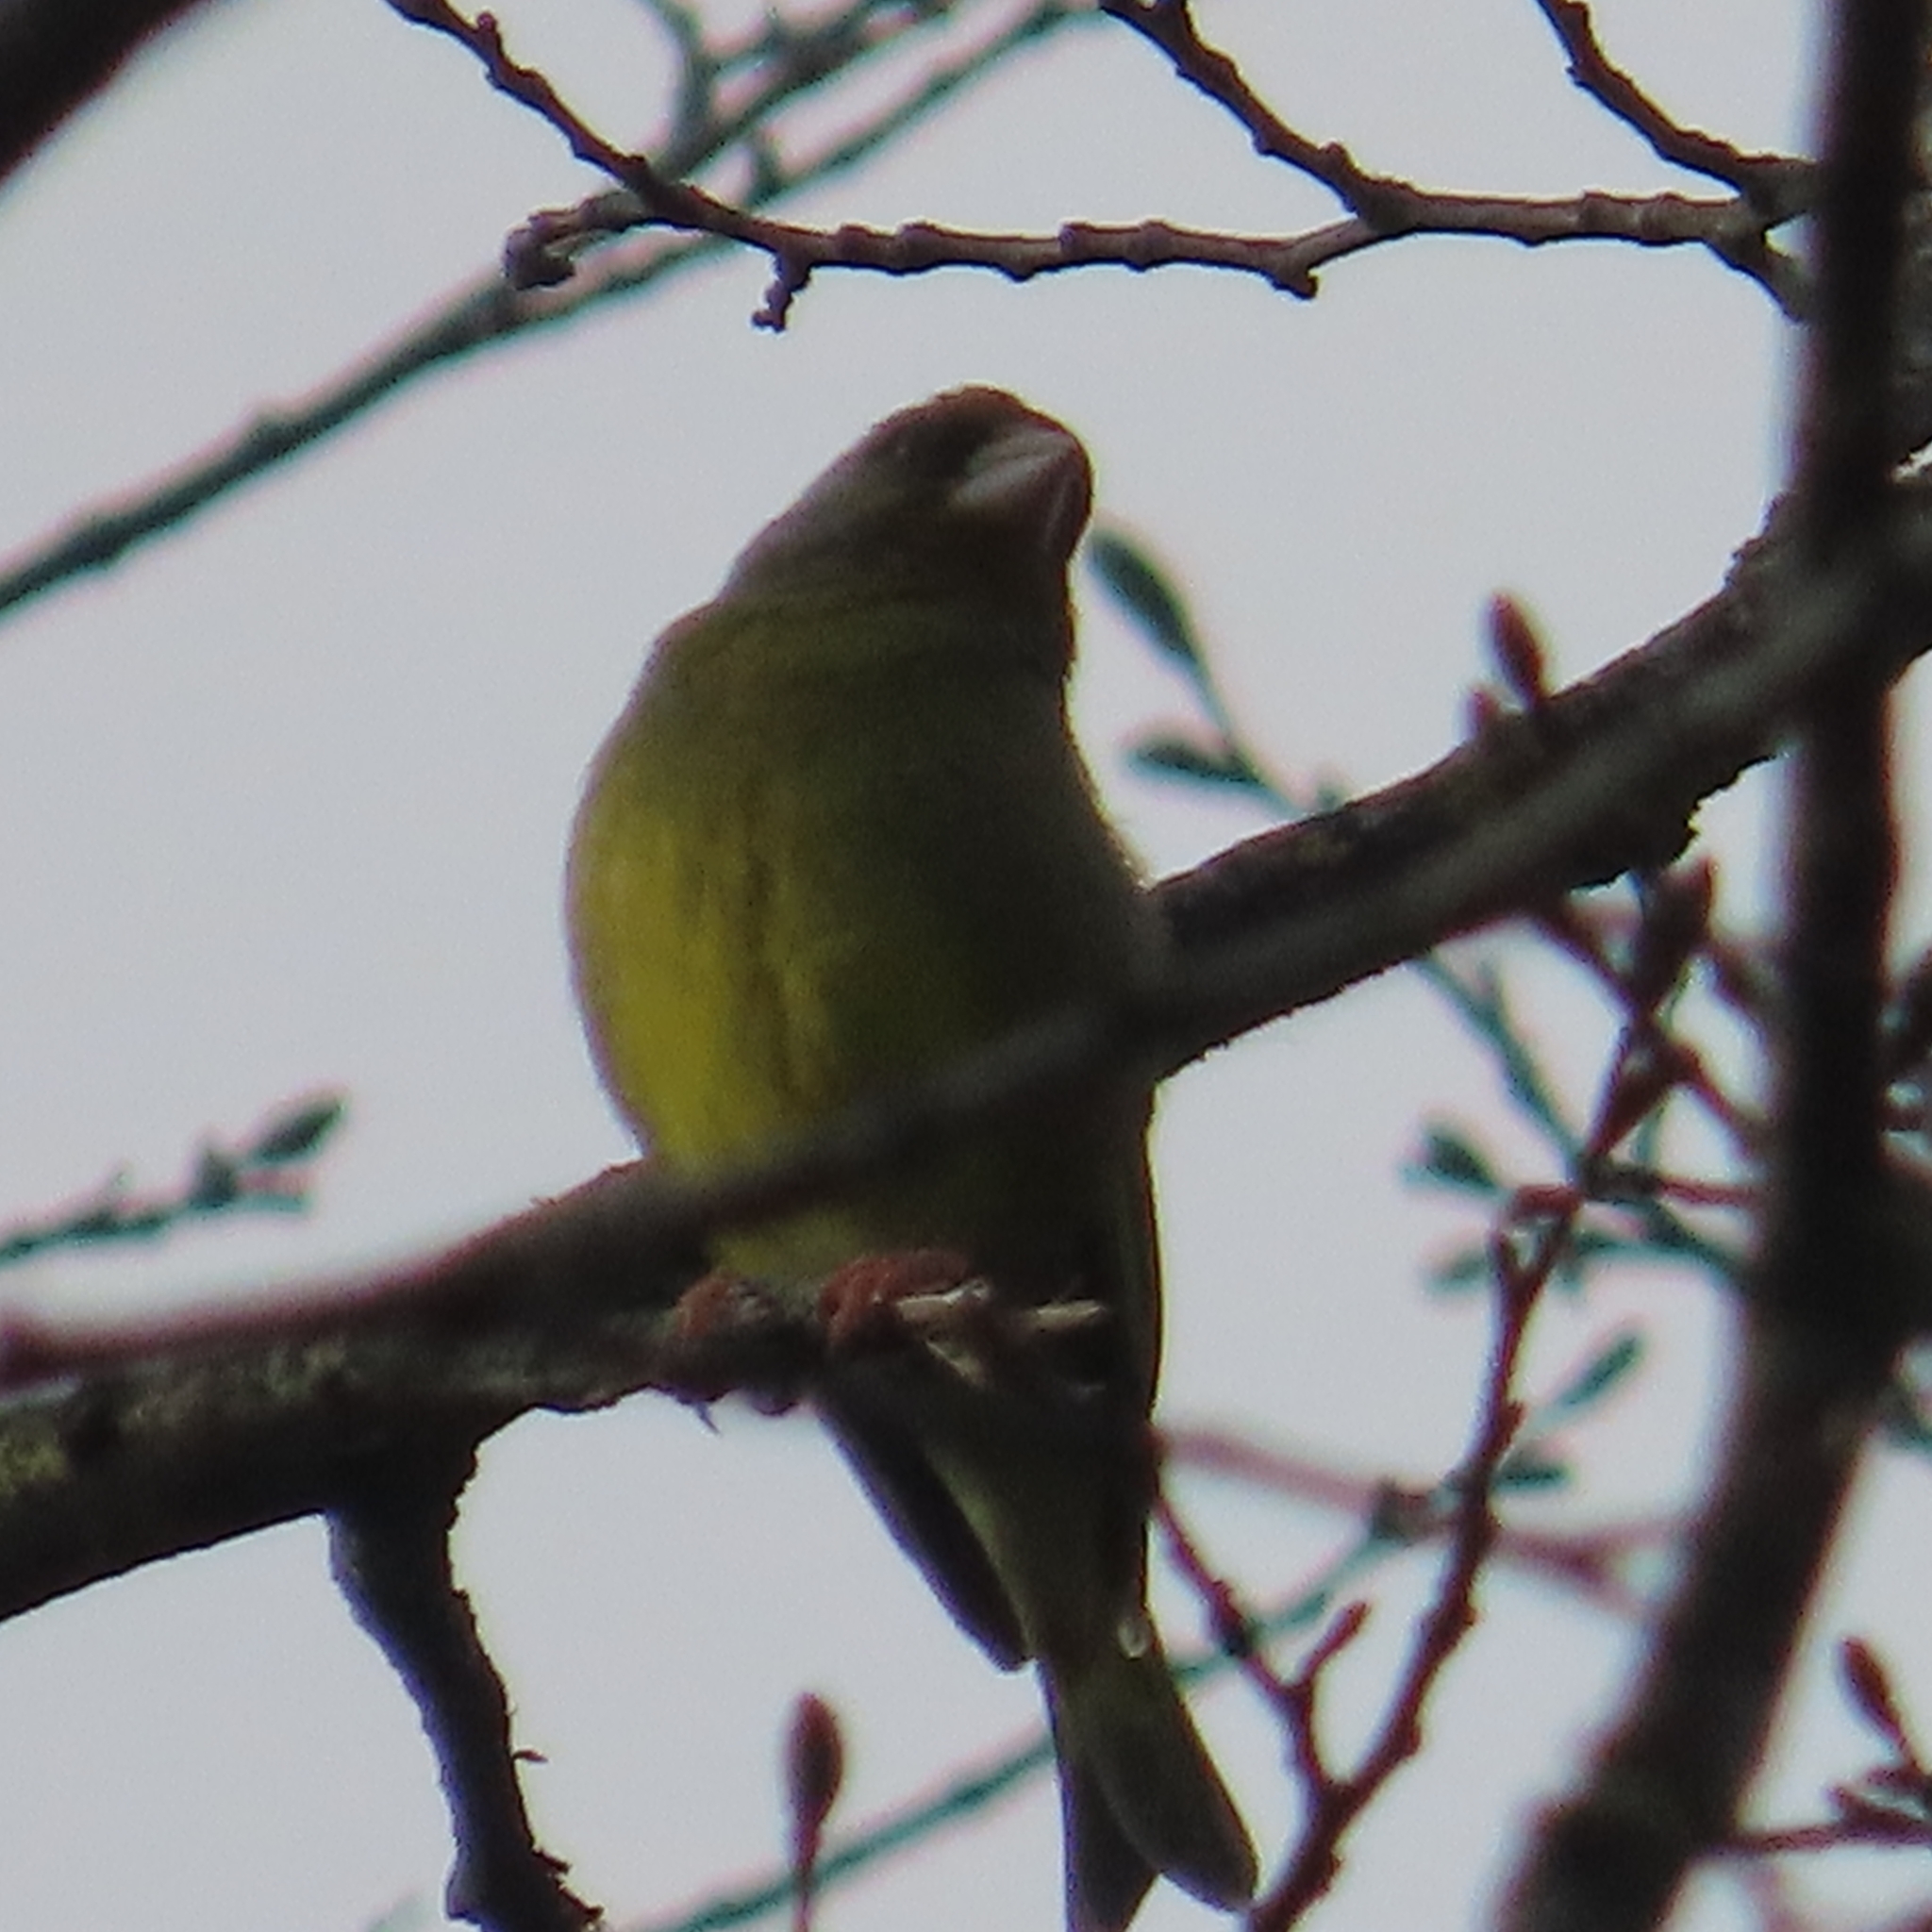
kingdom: Plantae
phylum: Tracheophyta
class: Liliopsida
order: Poales
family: Poaceae
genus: Chloris
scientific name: Chloris chloris
